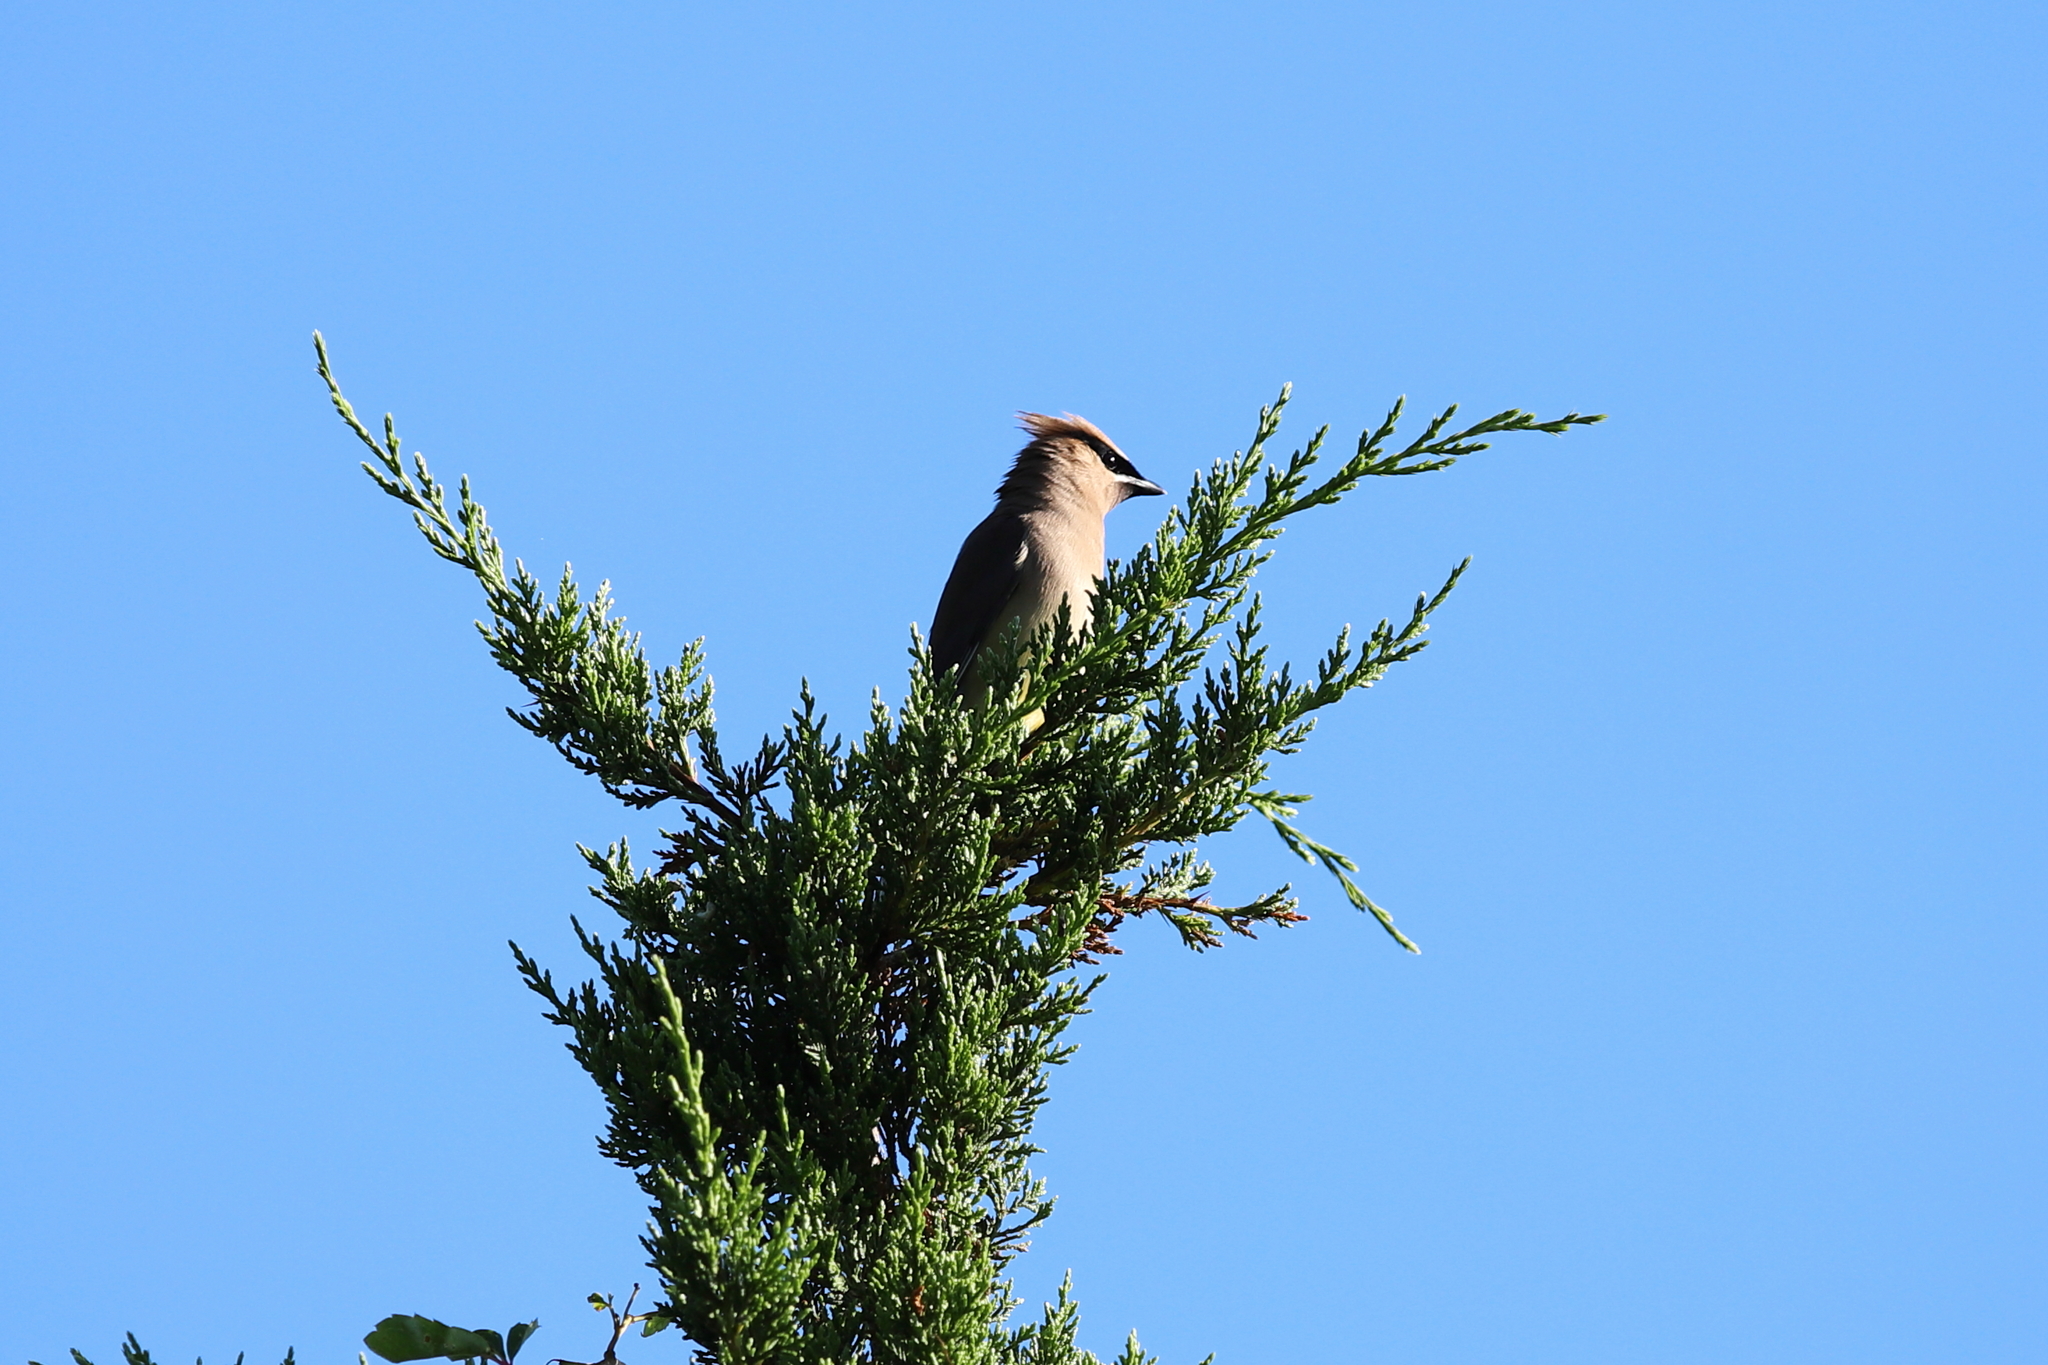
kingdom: Animalia
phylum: Chordata
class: Aves
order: Passeriformes
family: Bombycillidae
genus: Bombycilla
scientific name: Bombycilla cedrorum
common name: Cedar waxwing
